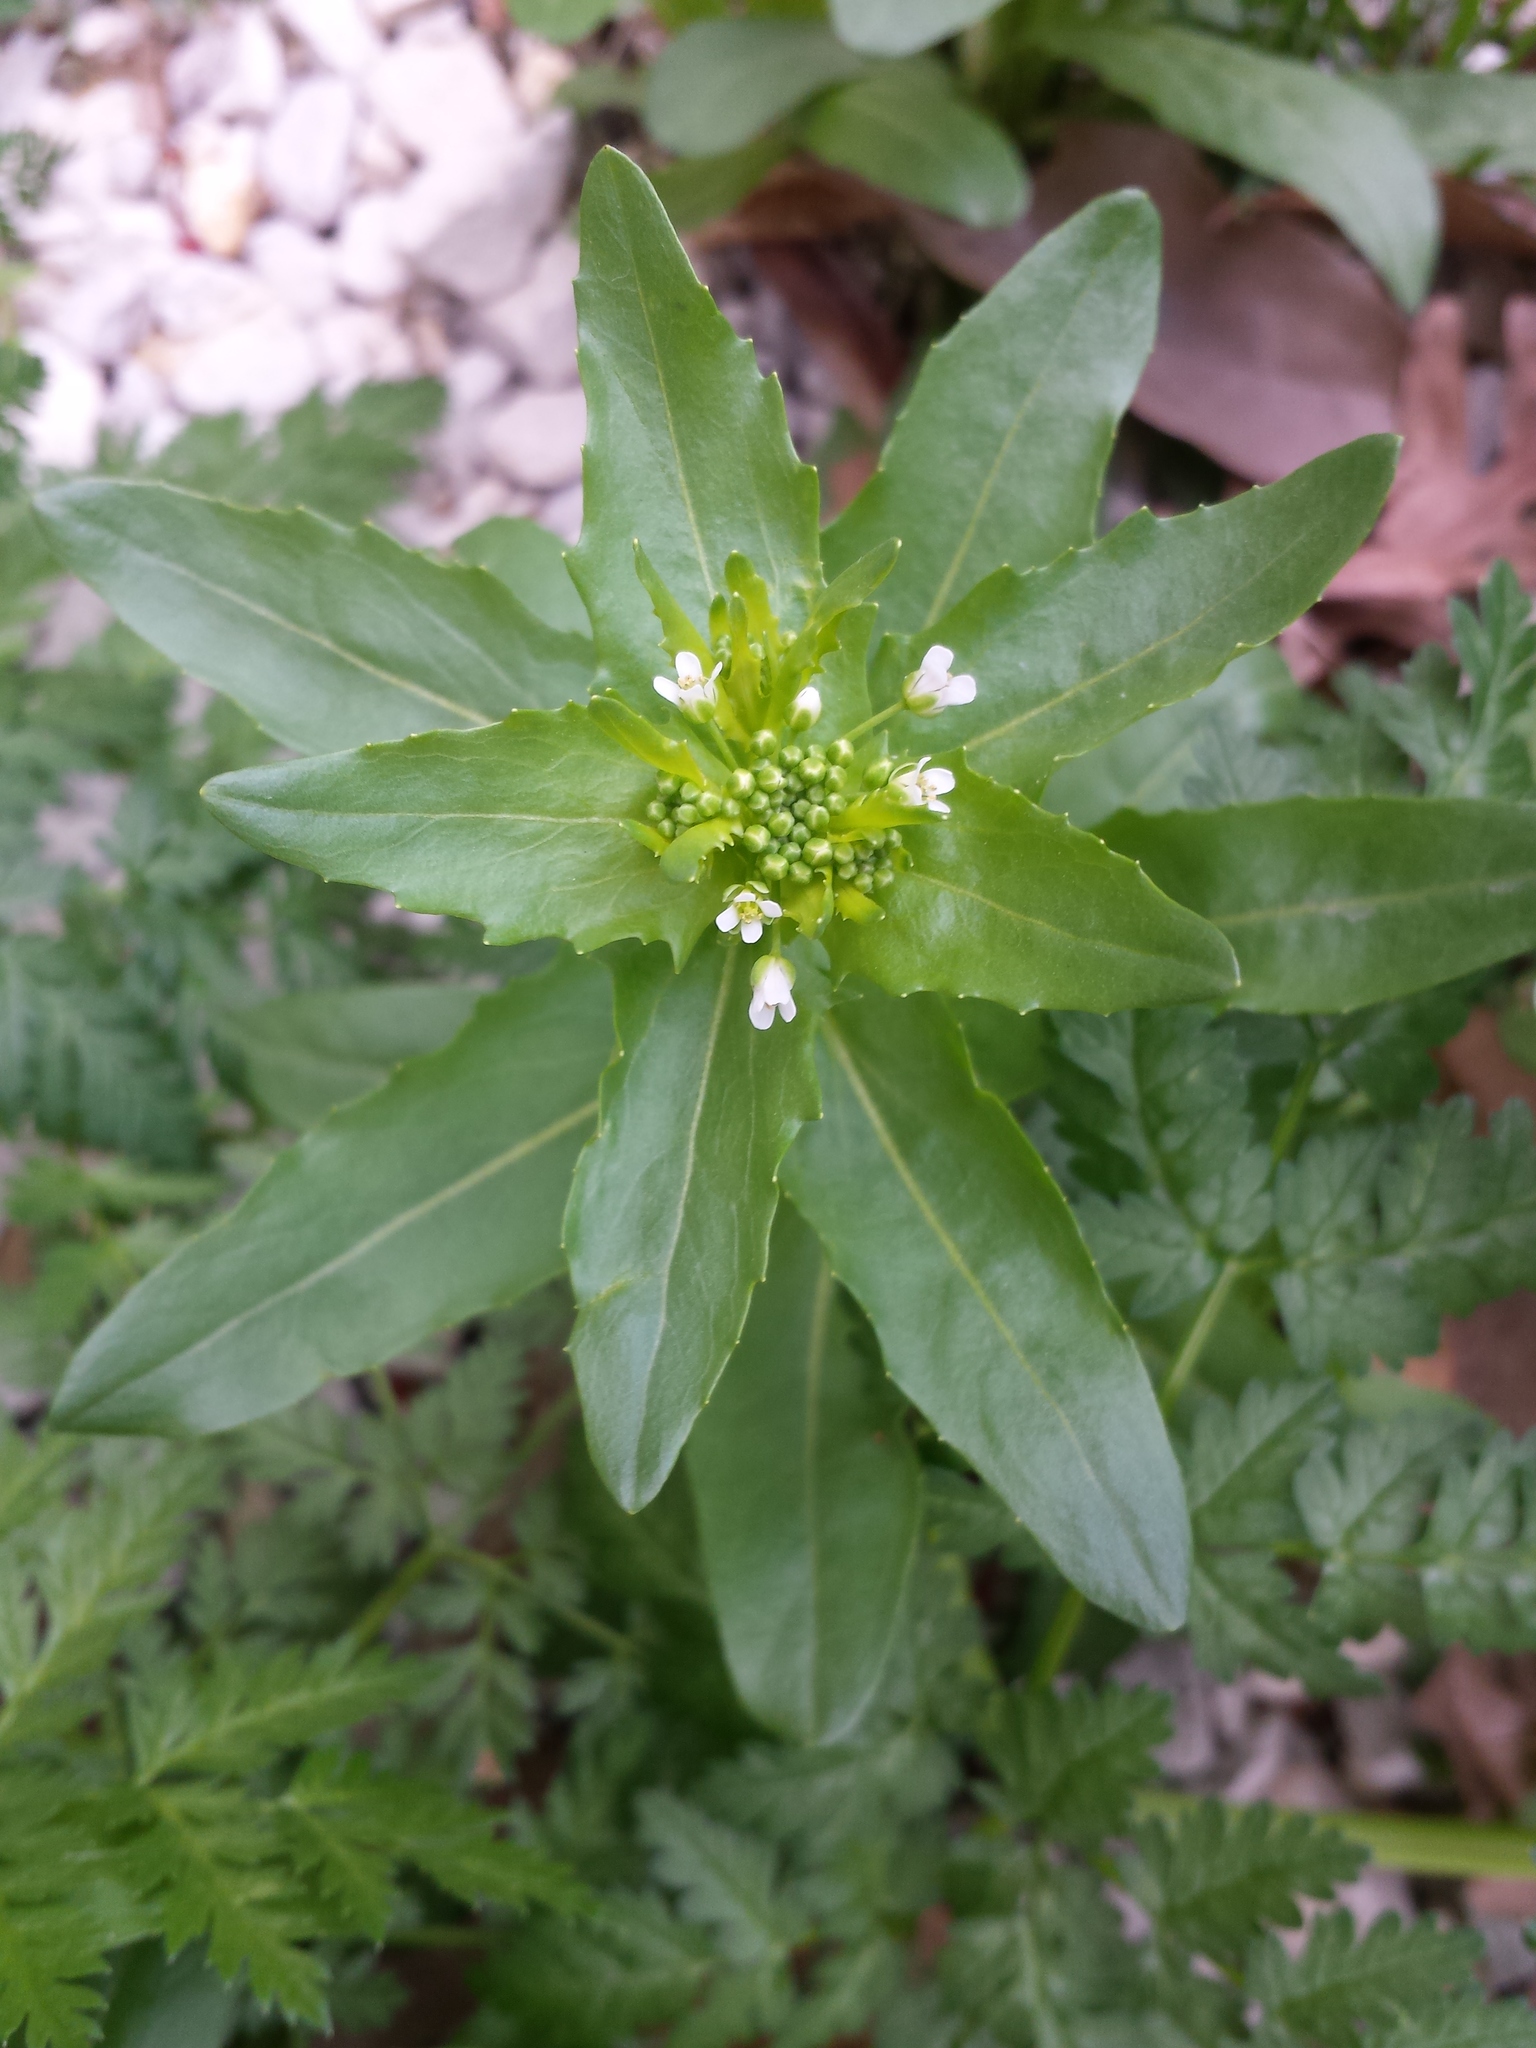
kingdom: Plantae
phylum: Tracheophyta
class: Magnoliopsida
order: Brassicales
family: Brassicaceae
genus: Thlaspi
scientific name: Thlaspi arvense
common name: Field pennycress
